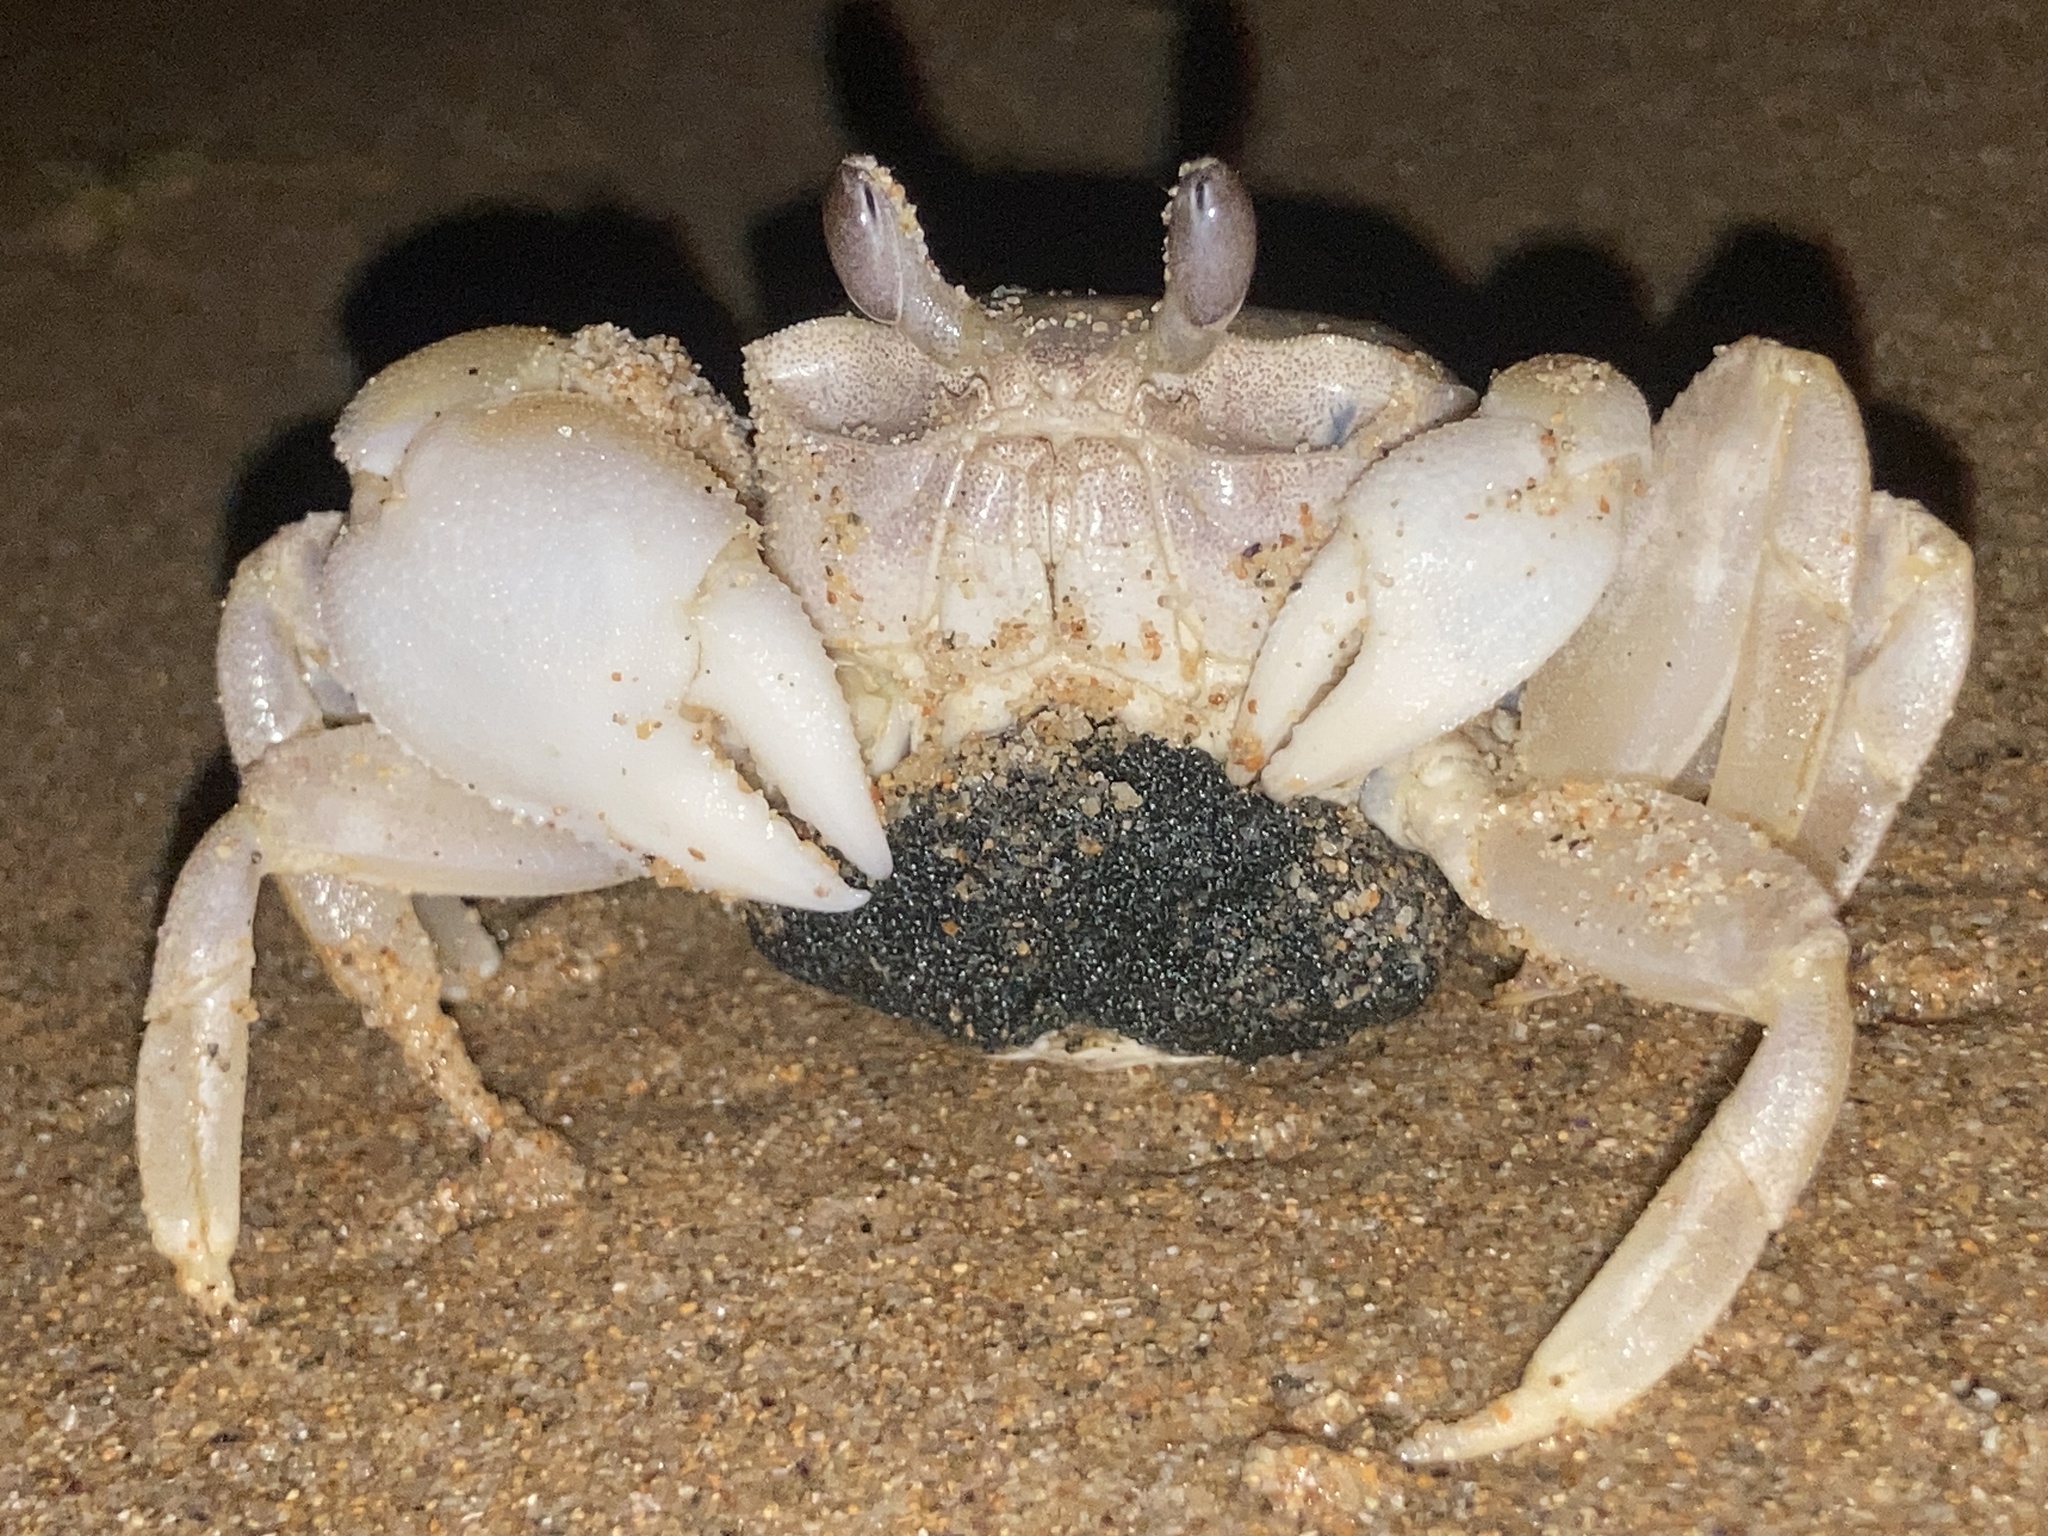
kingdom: Animalia
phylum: Arthropoda
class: Malacostraca
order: Decapoda
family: Ocypodidae
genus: Ocypode
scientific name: Ocypode cordimana
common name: Smooth-eyed ghost crab
